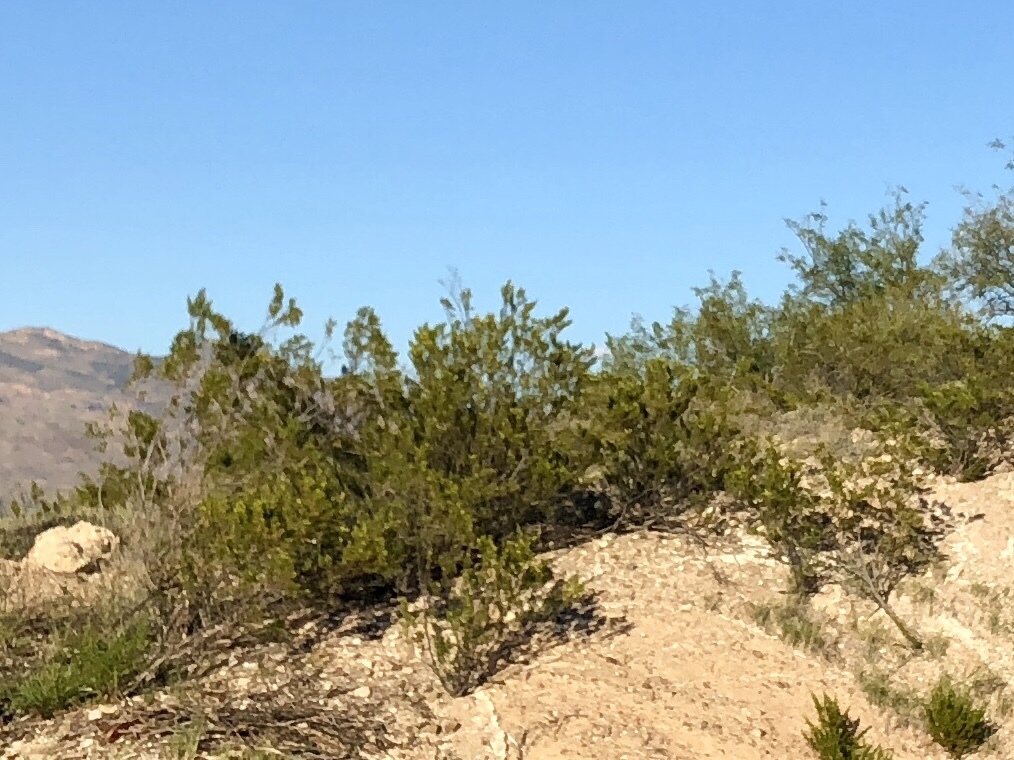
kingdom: Plantae
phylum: Tracheophyta
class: Magnoliopsida
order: Zygophyllales
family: Zygophyllaceae
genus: Larrea
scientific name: Larrea tridentata
